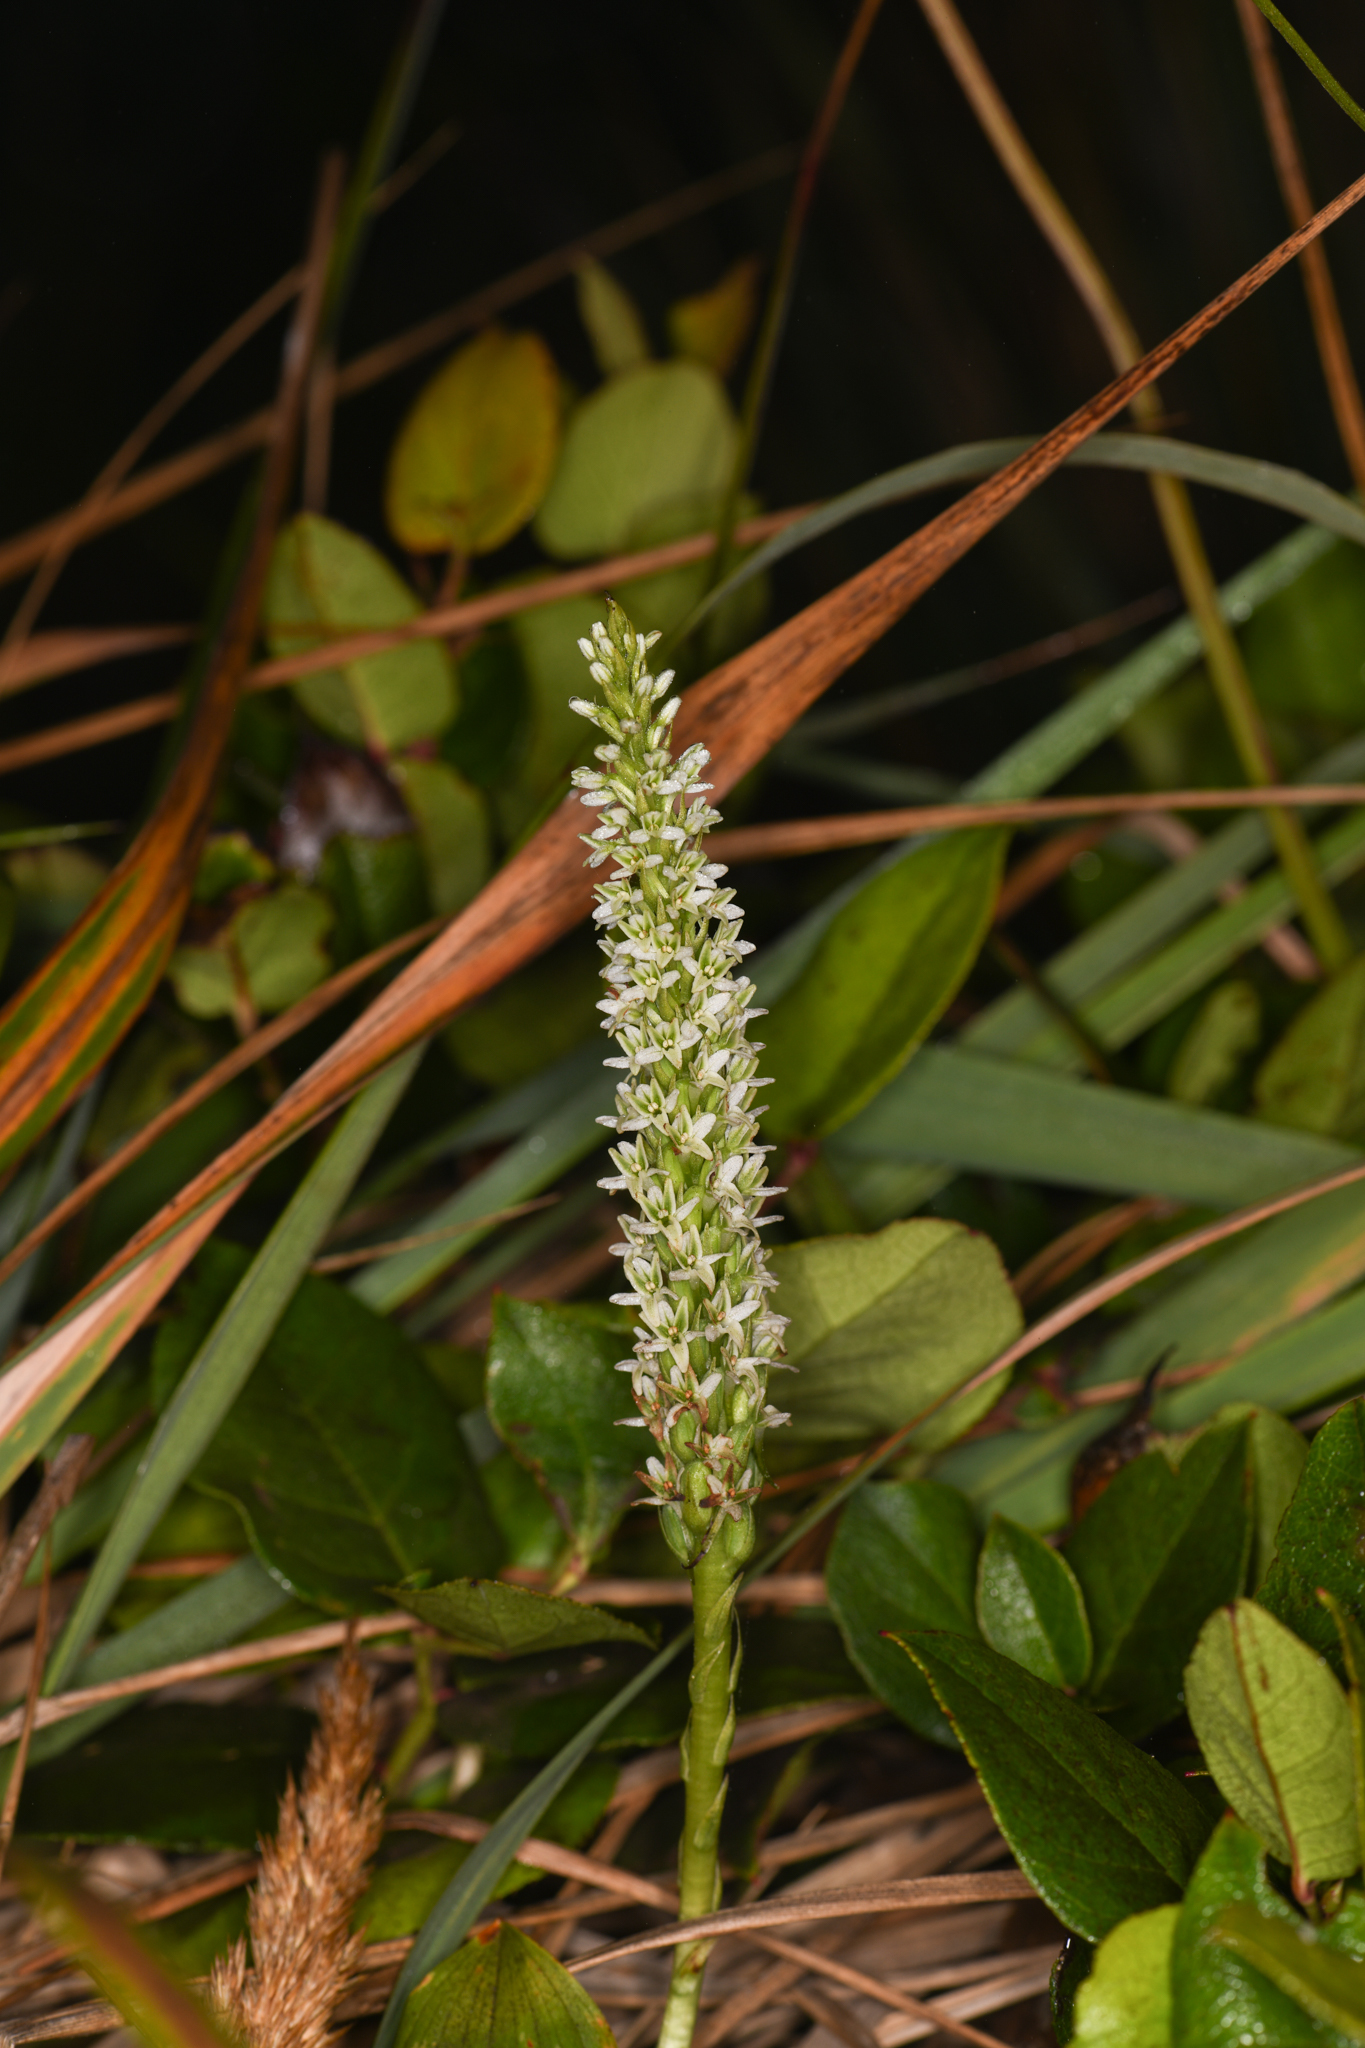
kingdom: Plantae
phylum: Tracheophyta
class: Liliopsida
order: Asparagales
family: Orchidaceae
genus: Platanthera
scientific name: Platanthera elegans
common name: Coast piperia
